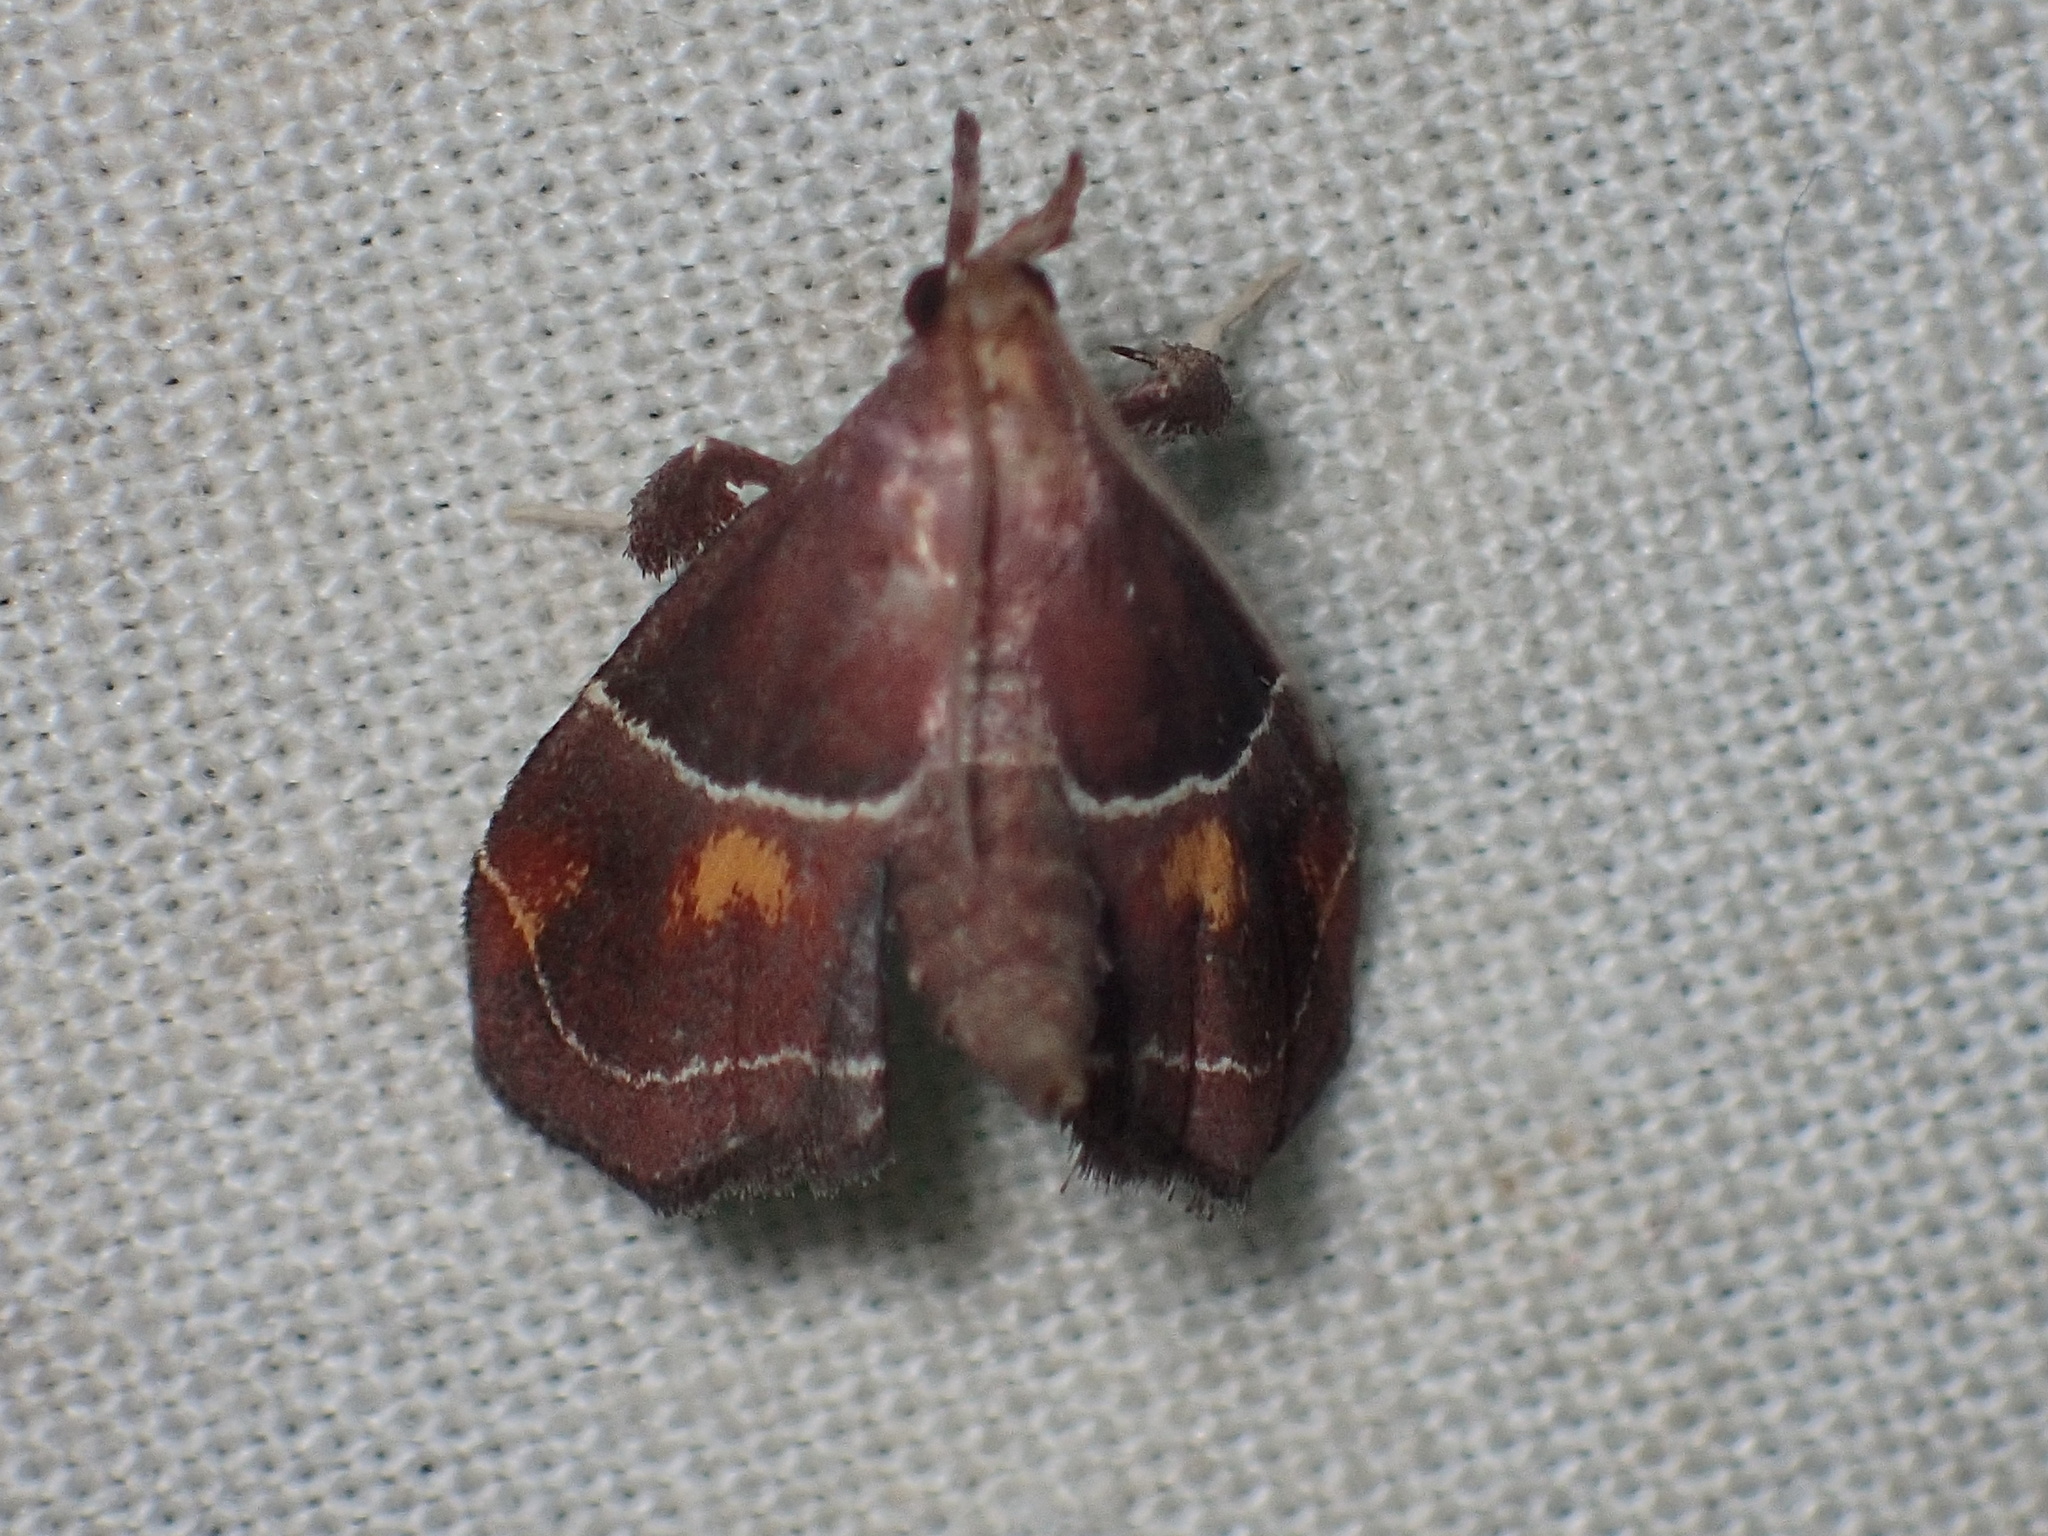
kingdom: Animalia
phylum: Arthropoda
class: Insecta
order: Lepidoptera
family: Pyralidae
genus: Penthesilea
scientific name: Penthesilea sacculalis
